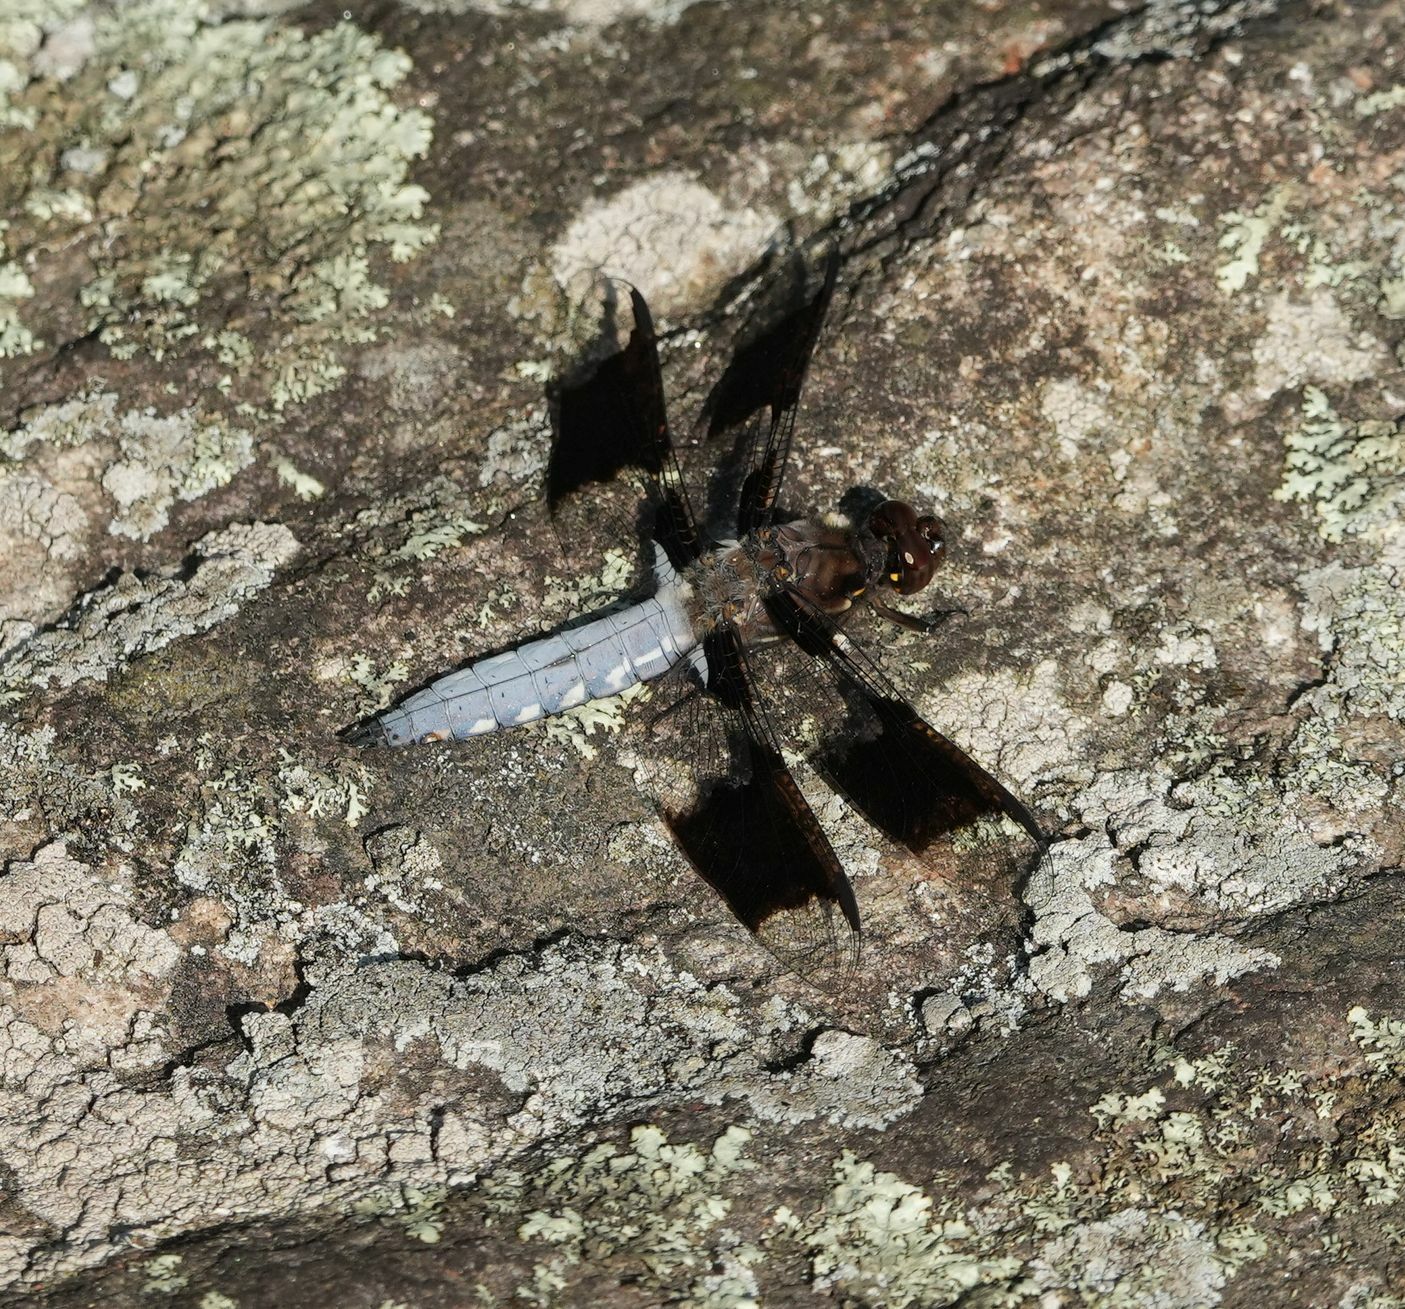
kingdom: Animalia
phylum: Arthropoda
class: Insecta
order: Odonata
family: Libellulidae
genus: Plathemis
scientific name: Plathemis lydia
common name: Common whitetail
